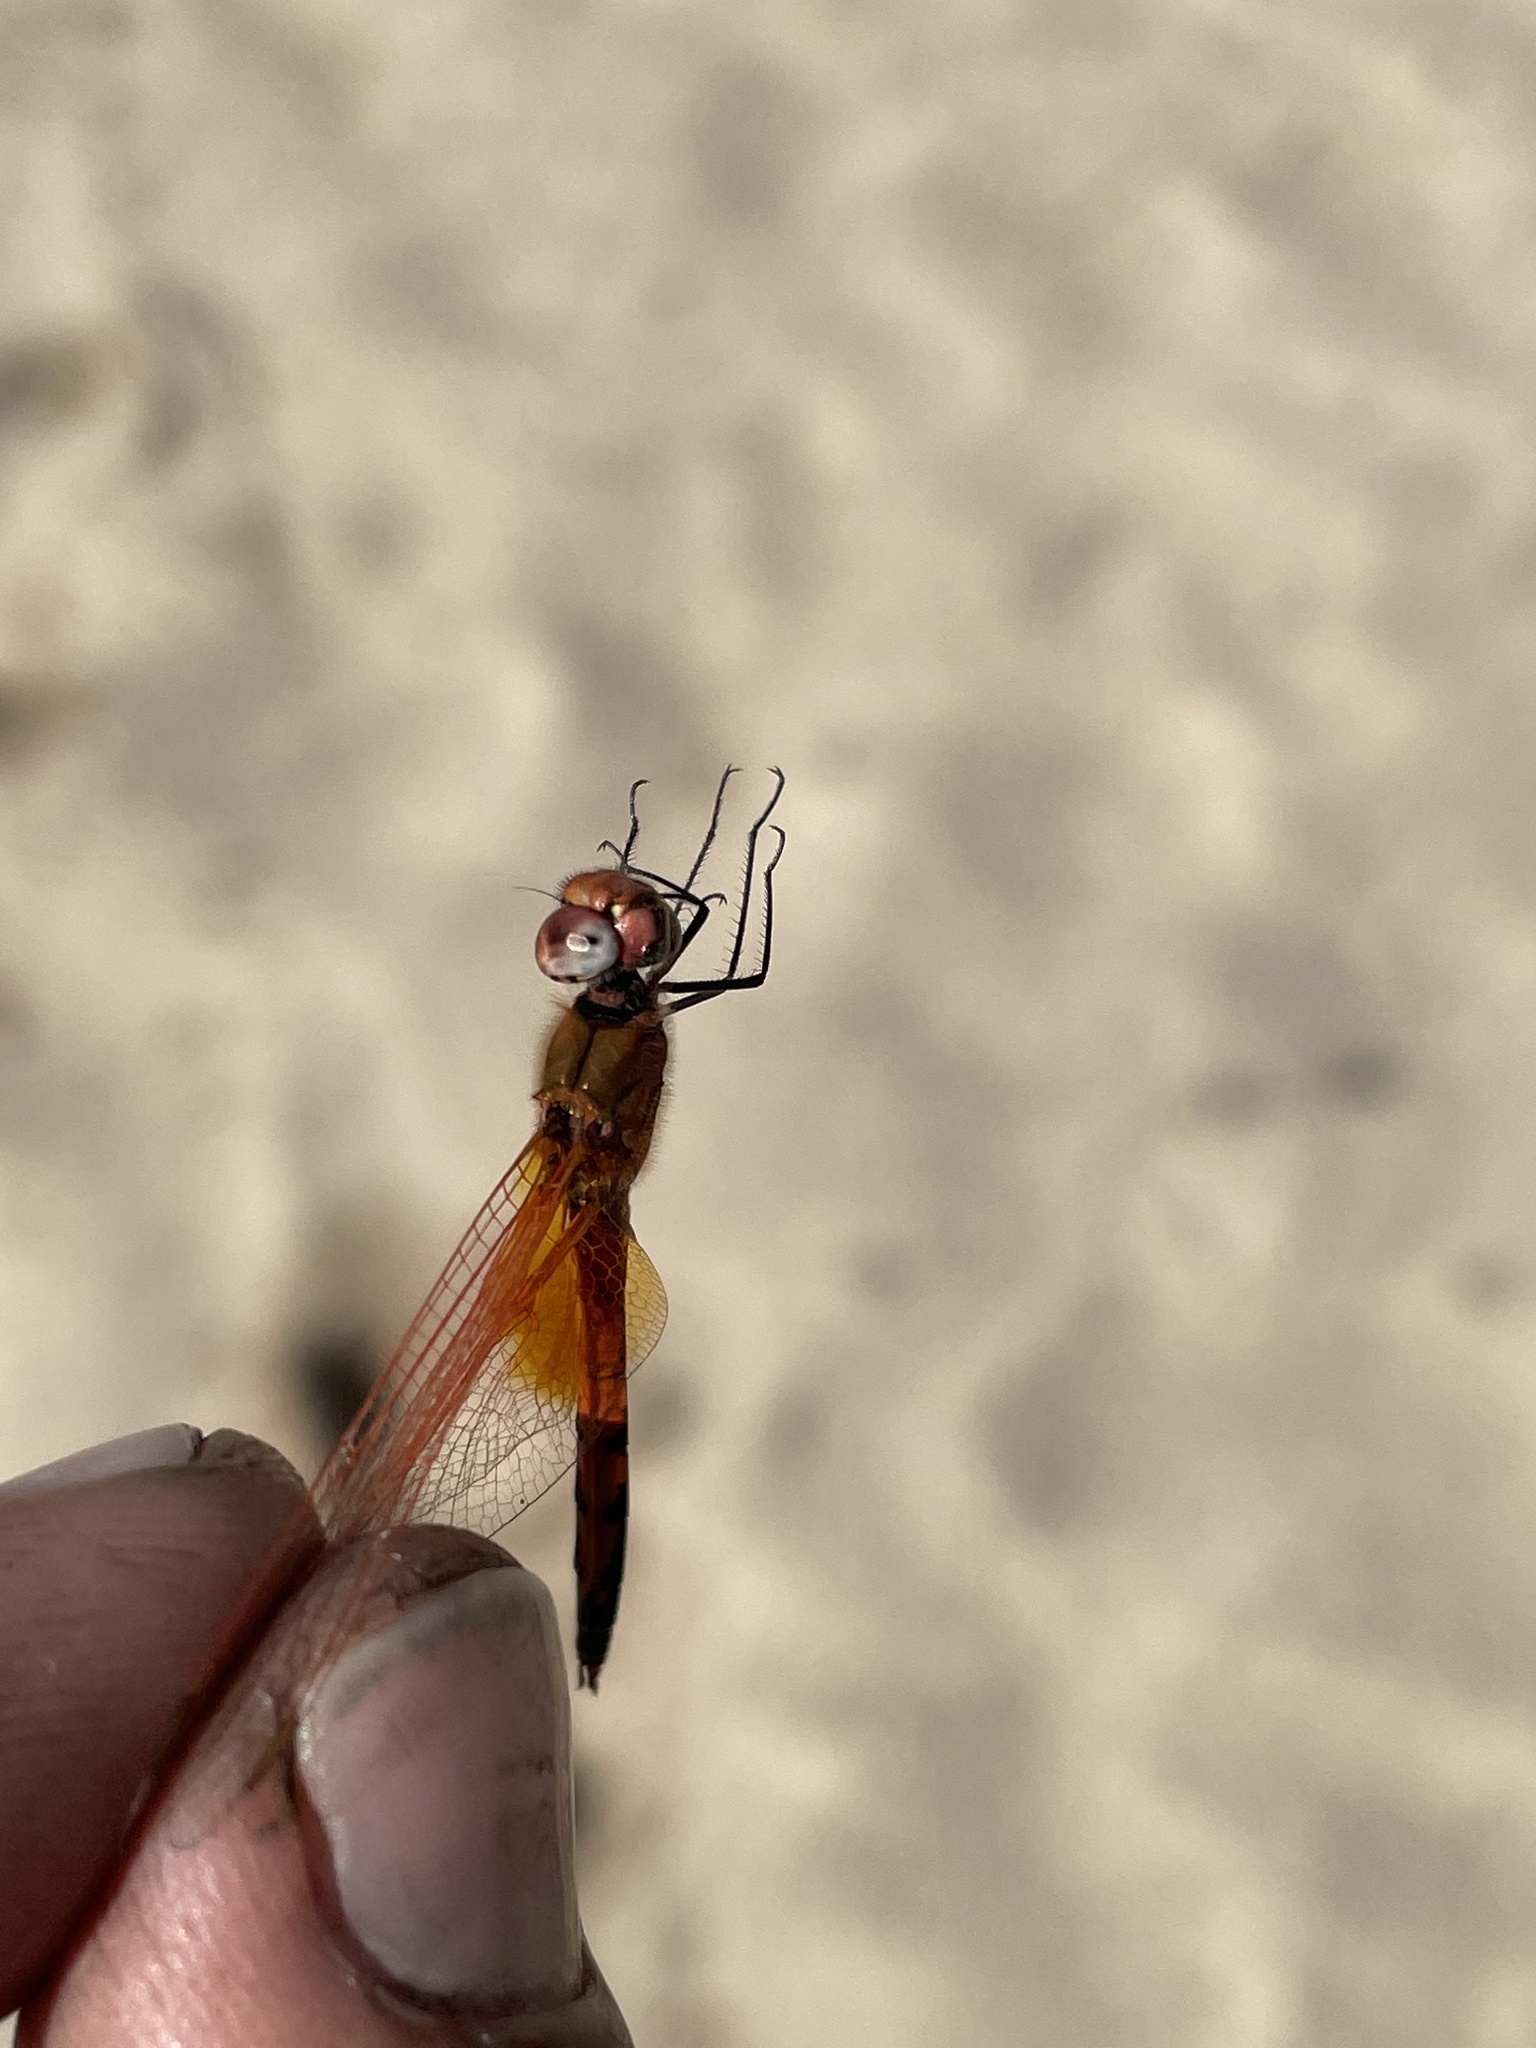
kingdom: Animalia
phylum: Arthropoda
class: Insecta
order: Odonata
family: Libellulidae
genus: Trithemis
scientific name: Trithemis imitata
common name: Copycat dropwing
